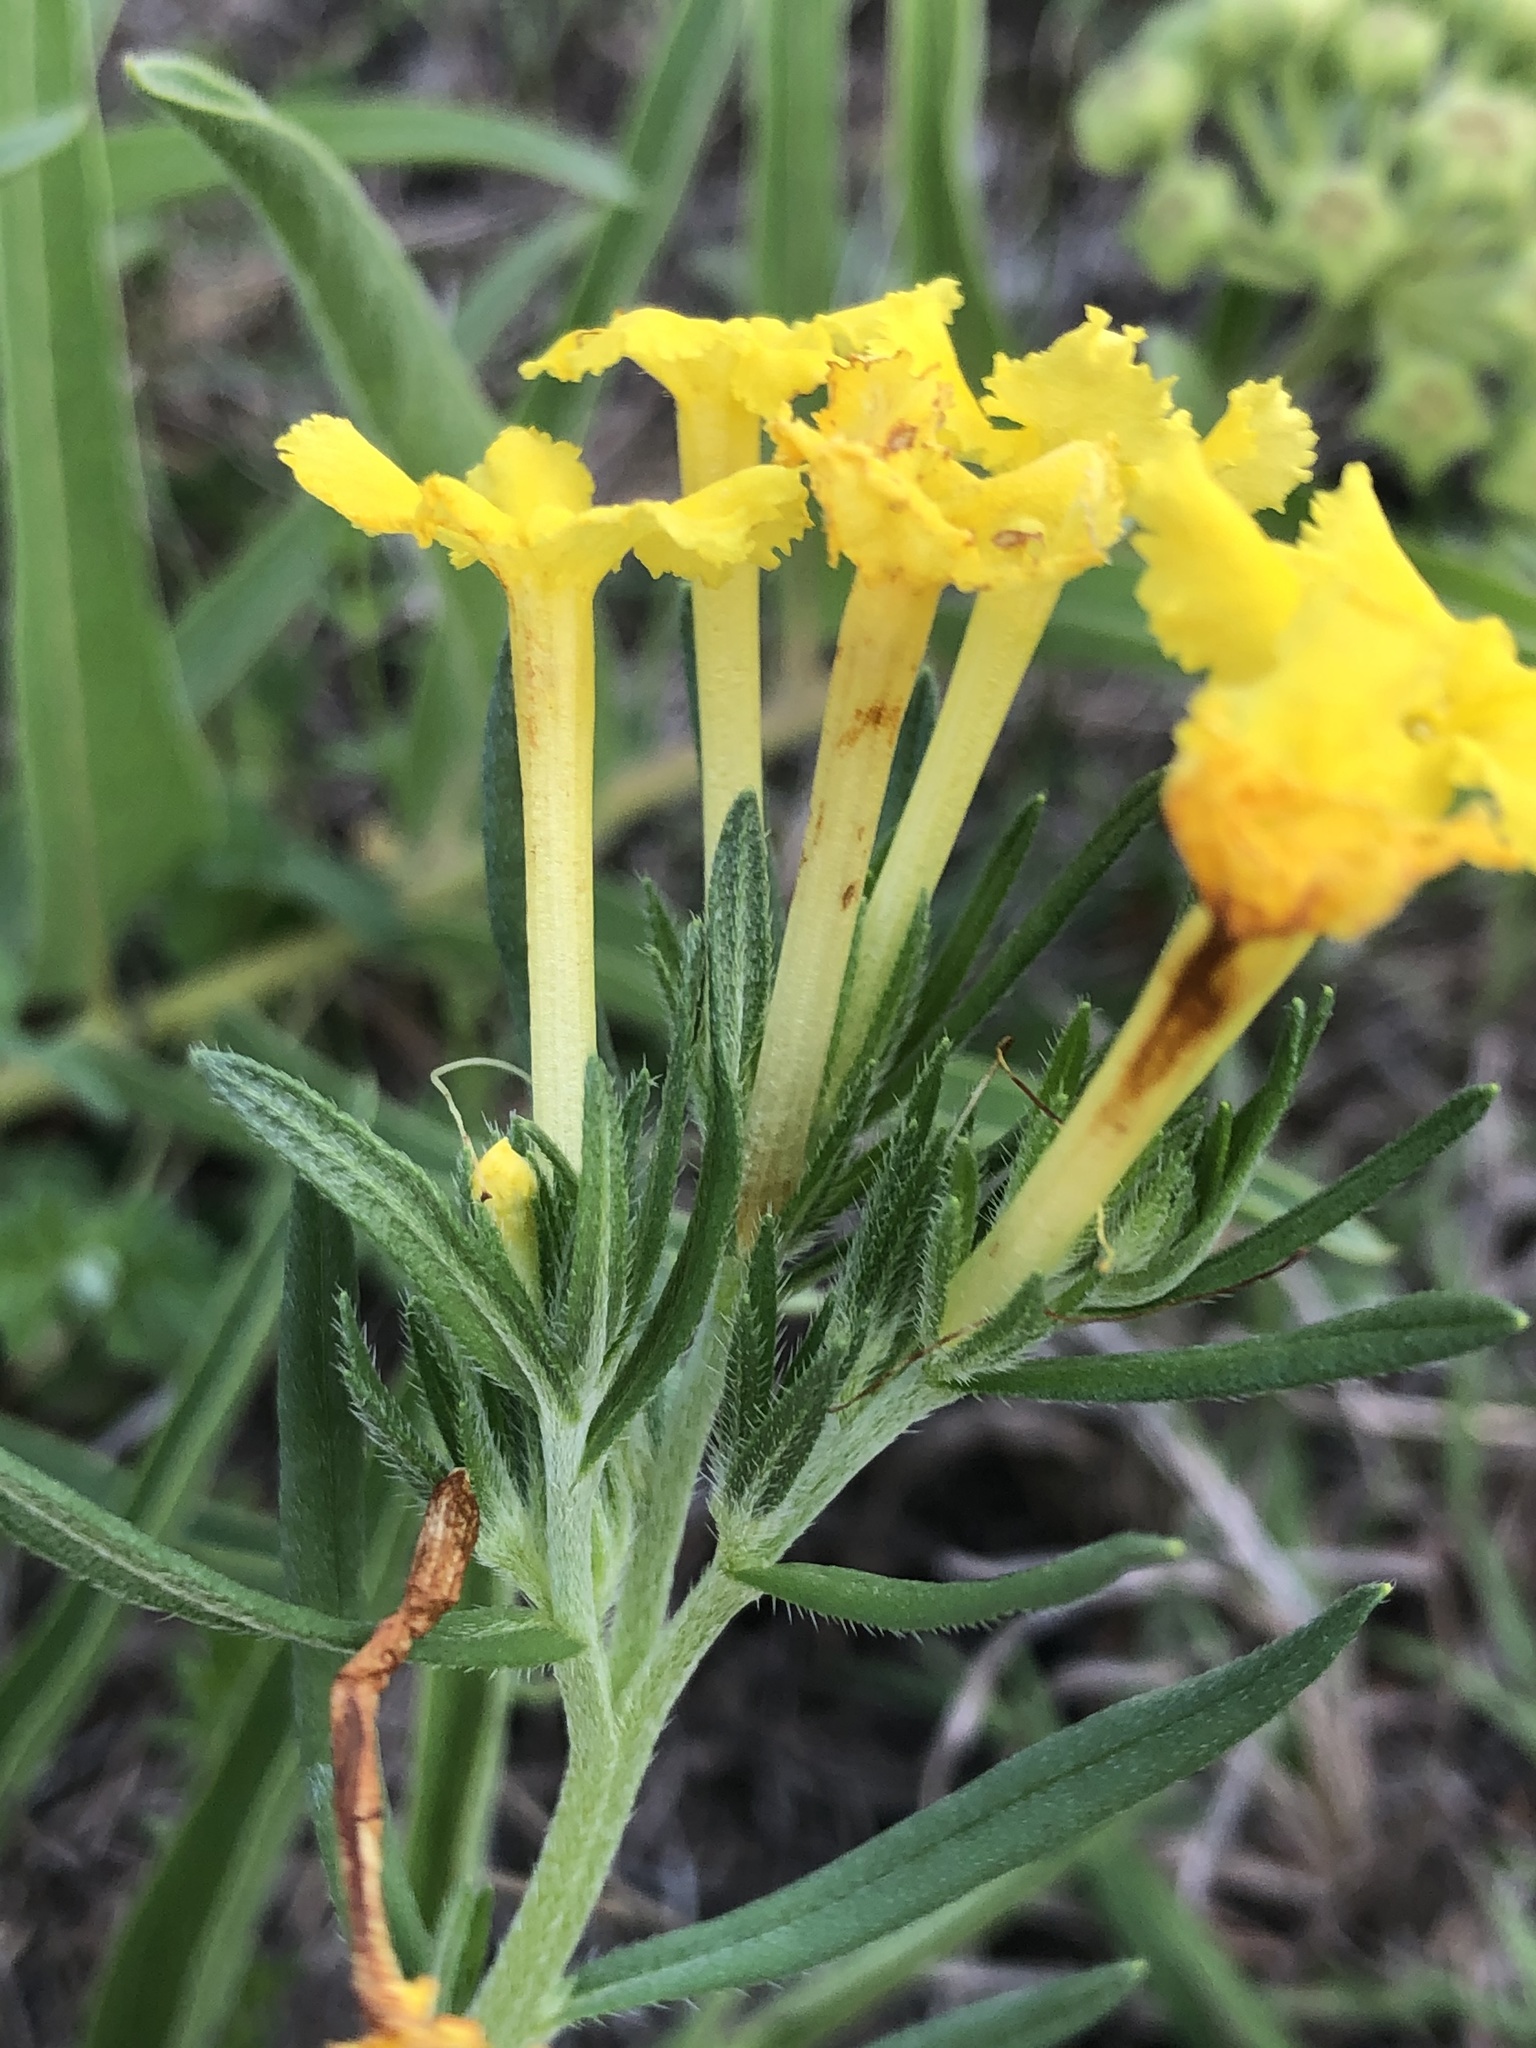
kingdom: Plantae
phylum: Tracheophyta
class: Magnoliopsida
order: Boraginales
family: Boraginaceae
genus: Lithospermum
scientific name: Lithospermum incisum
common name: Fringed gromwell
